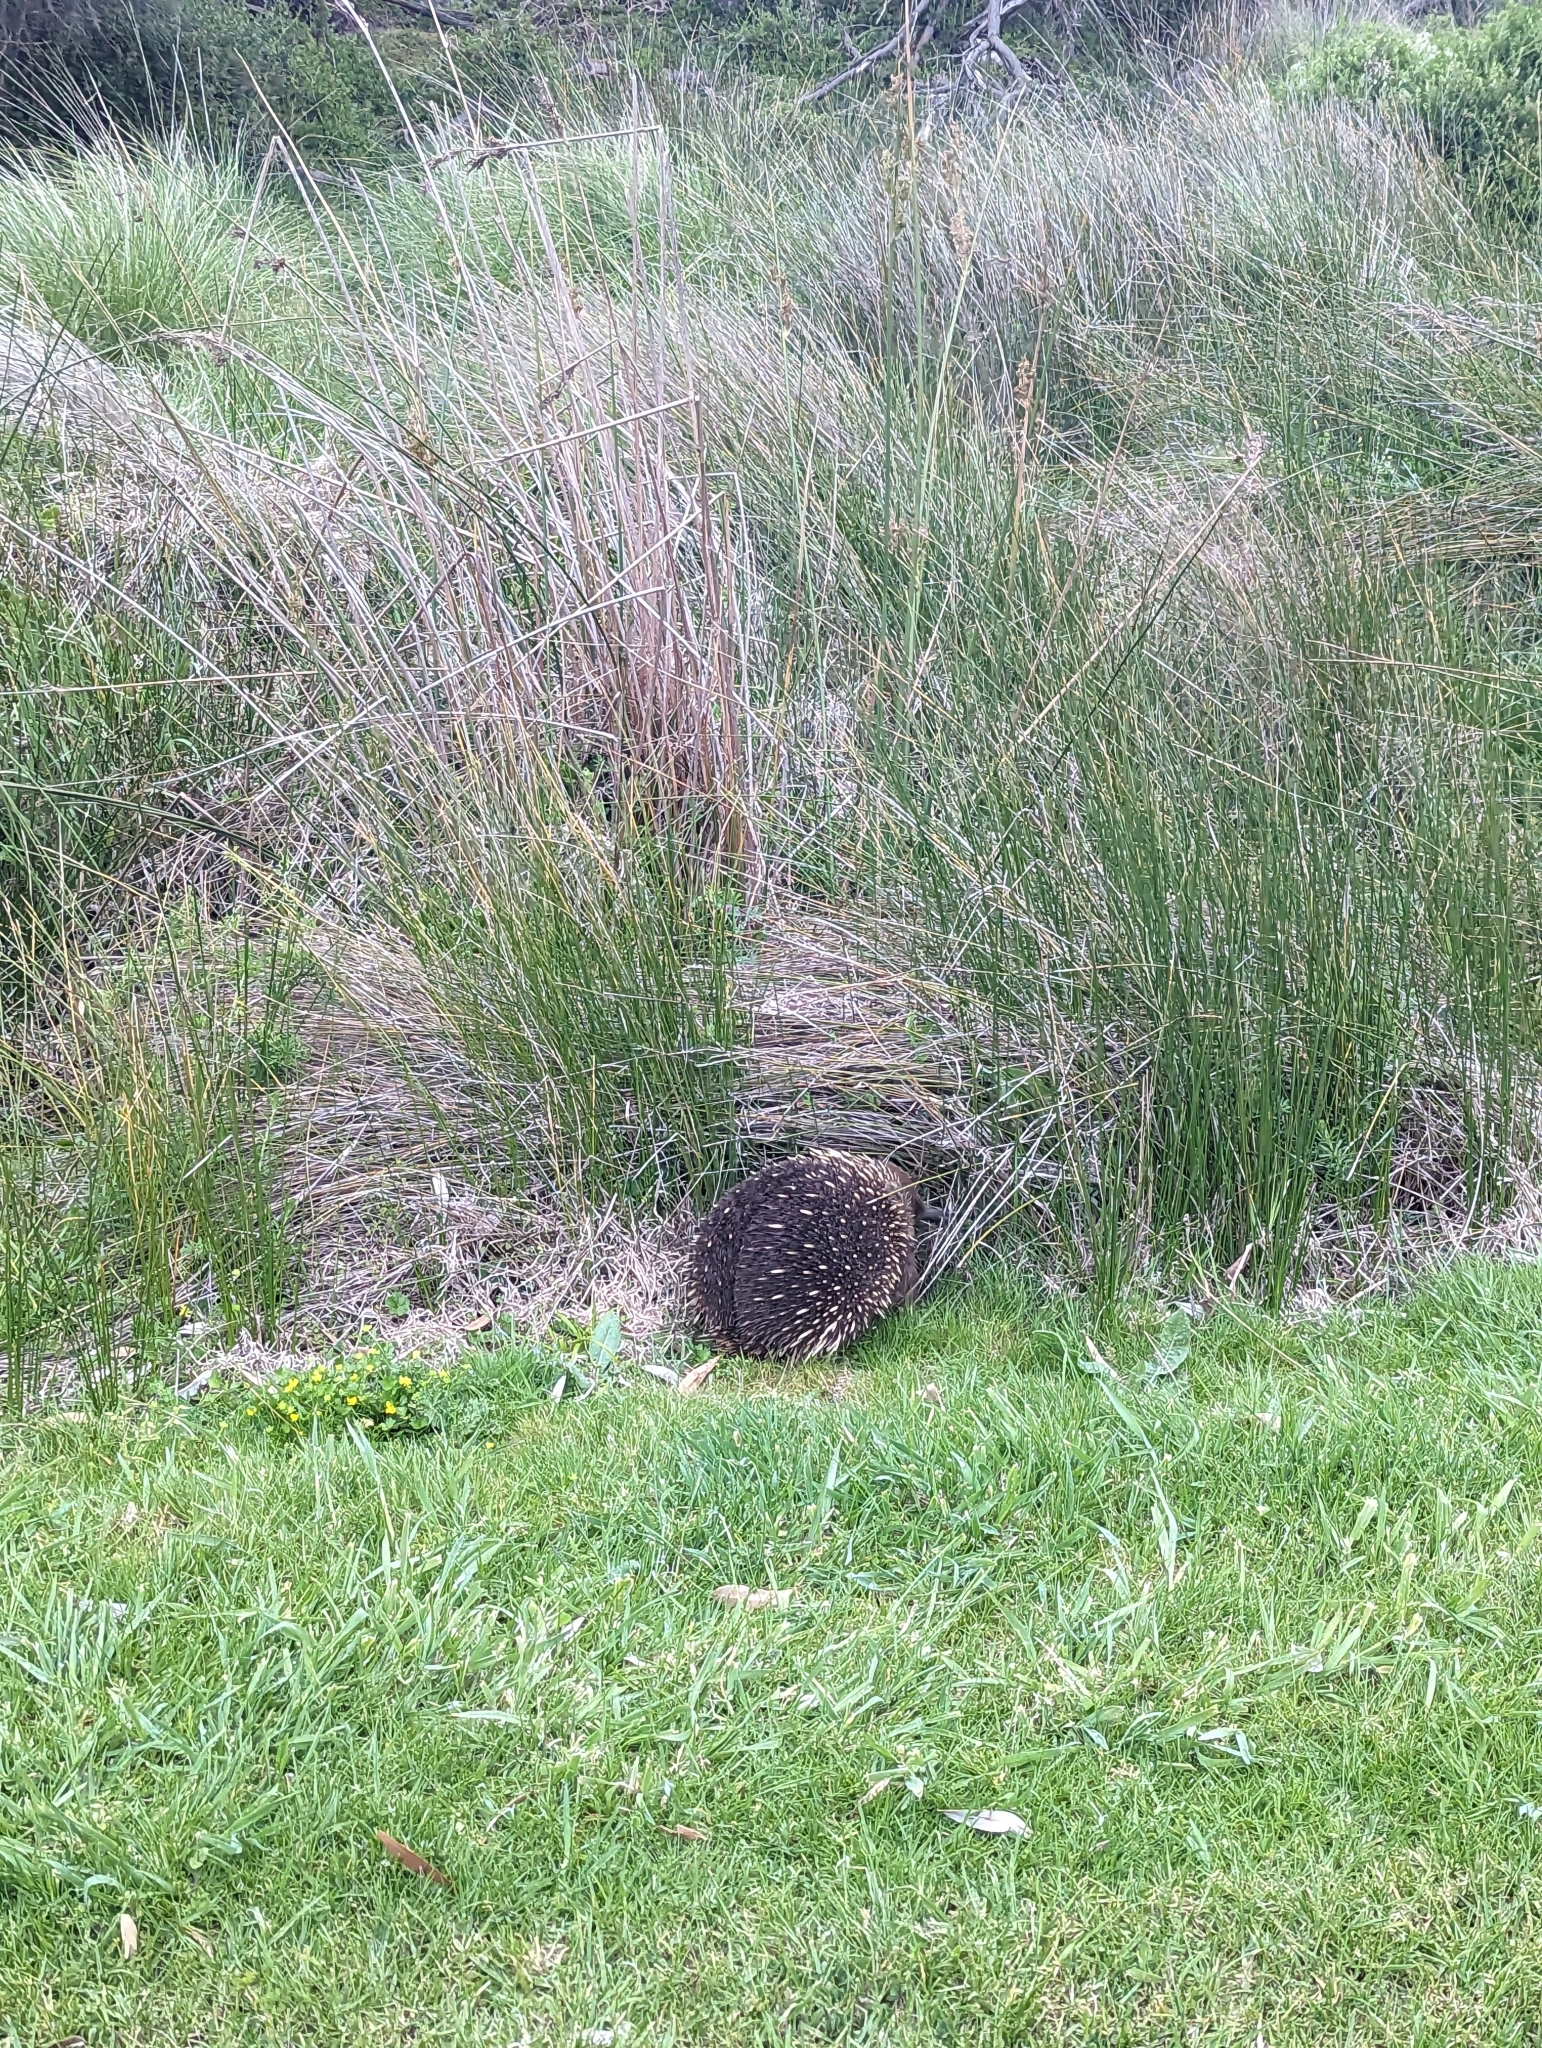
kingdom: Animalia
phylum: Chordata
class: Mammalia
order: Monotremata
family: Tachyglossidae
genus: Tachyglossus
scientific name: Tachyglossus aculeatus
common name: Short-beaked echidna
